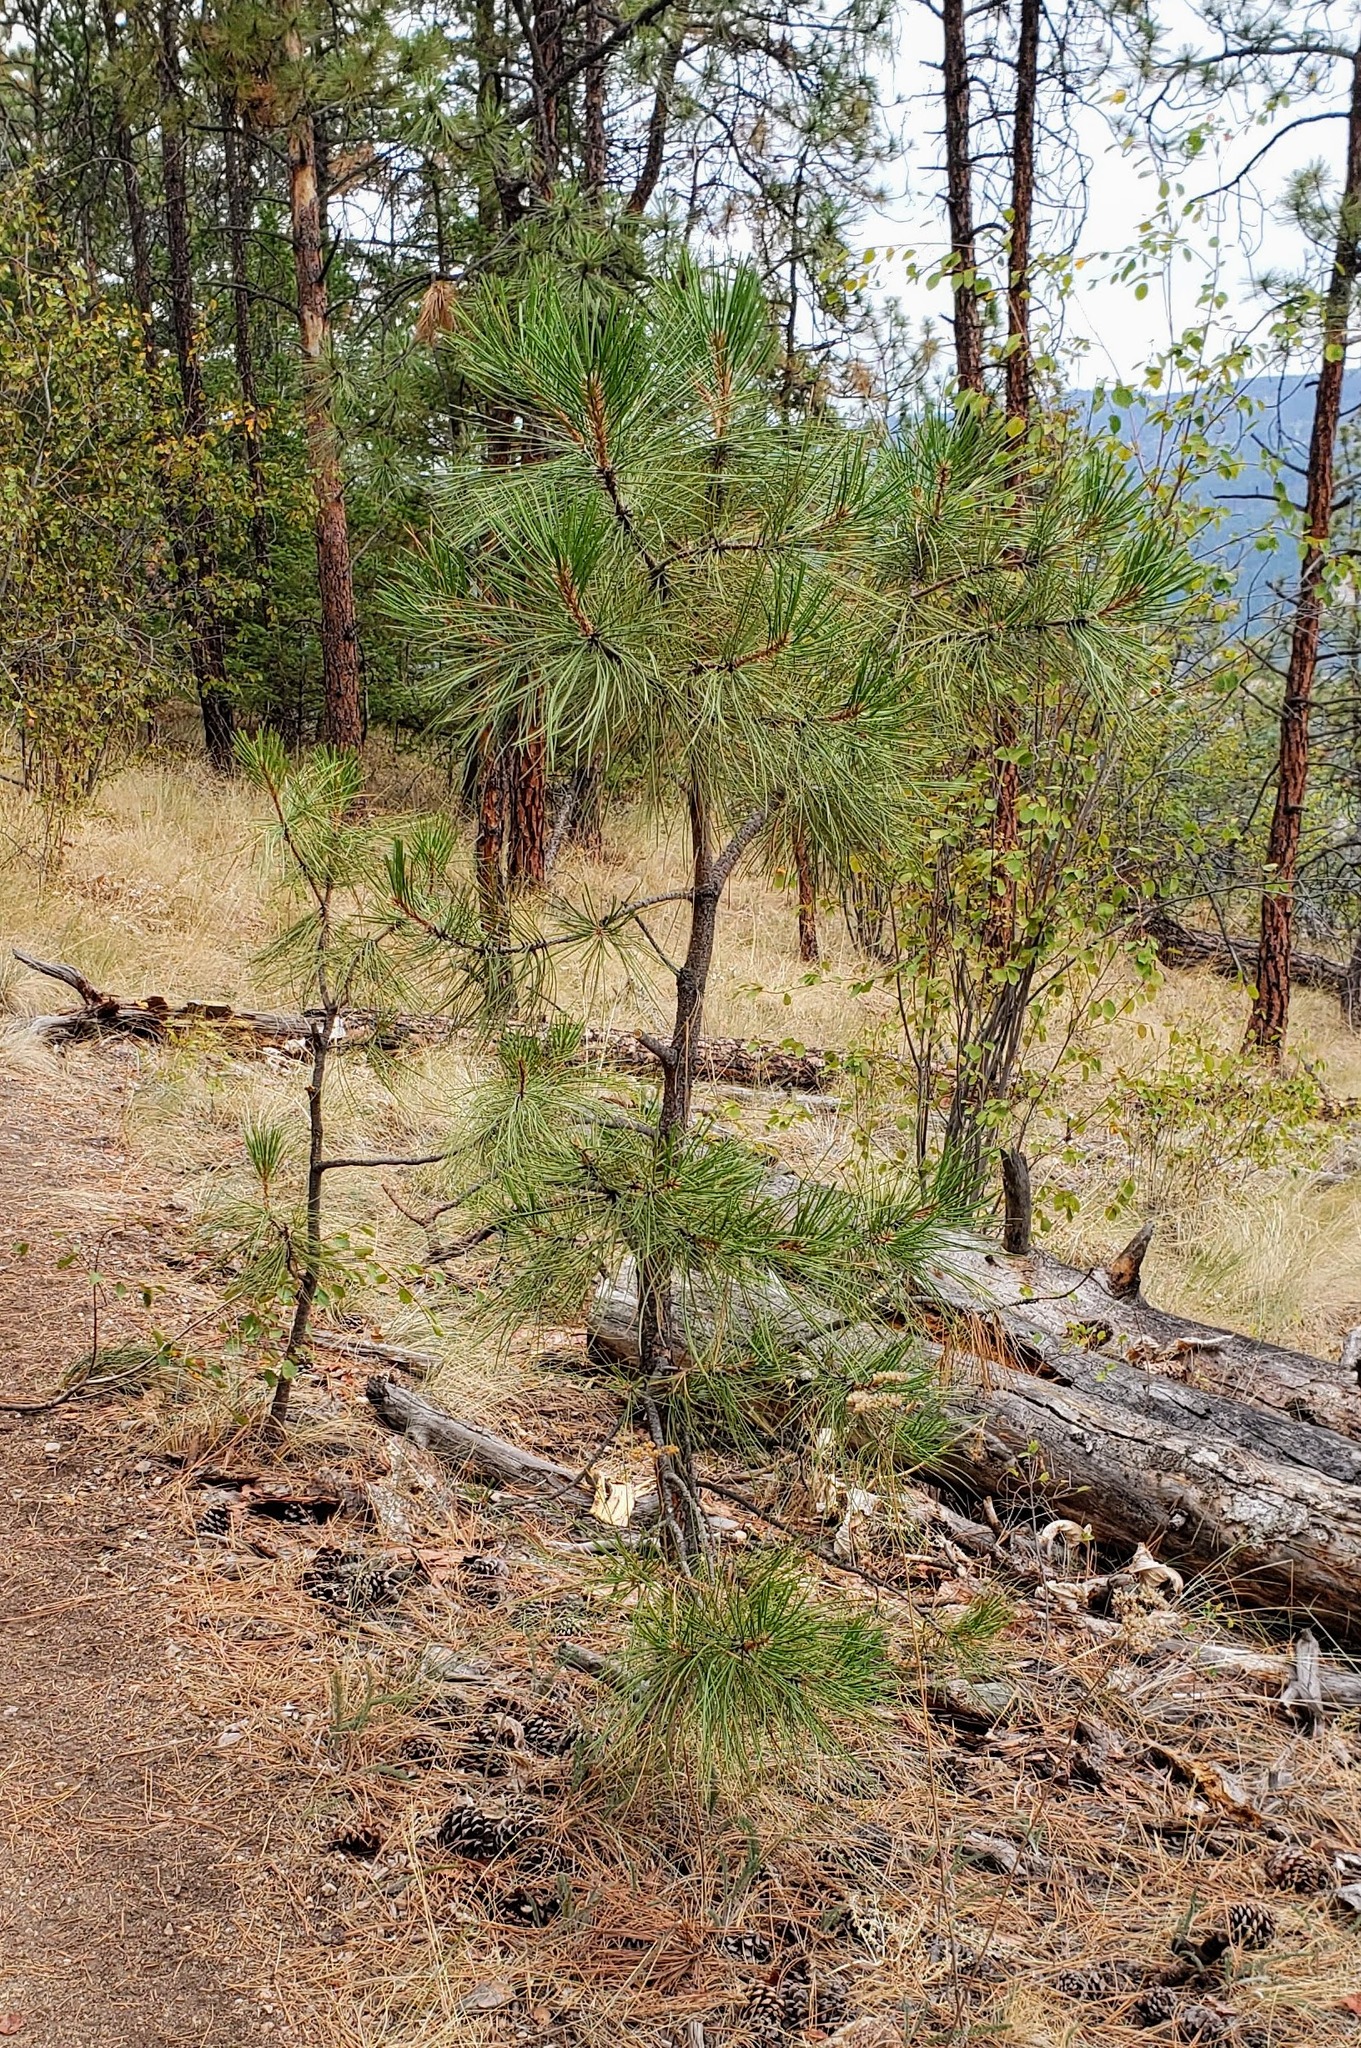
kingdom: Plantae
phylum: Tracheophyta
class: Pinopsida
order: Pinales
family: Pinaceae
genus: Pinus
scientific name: Pinus ponderosa
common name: Western yellow-pine
